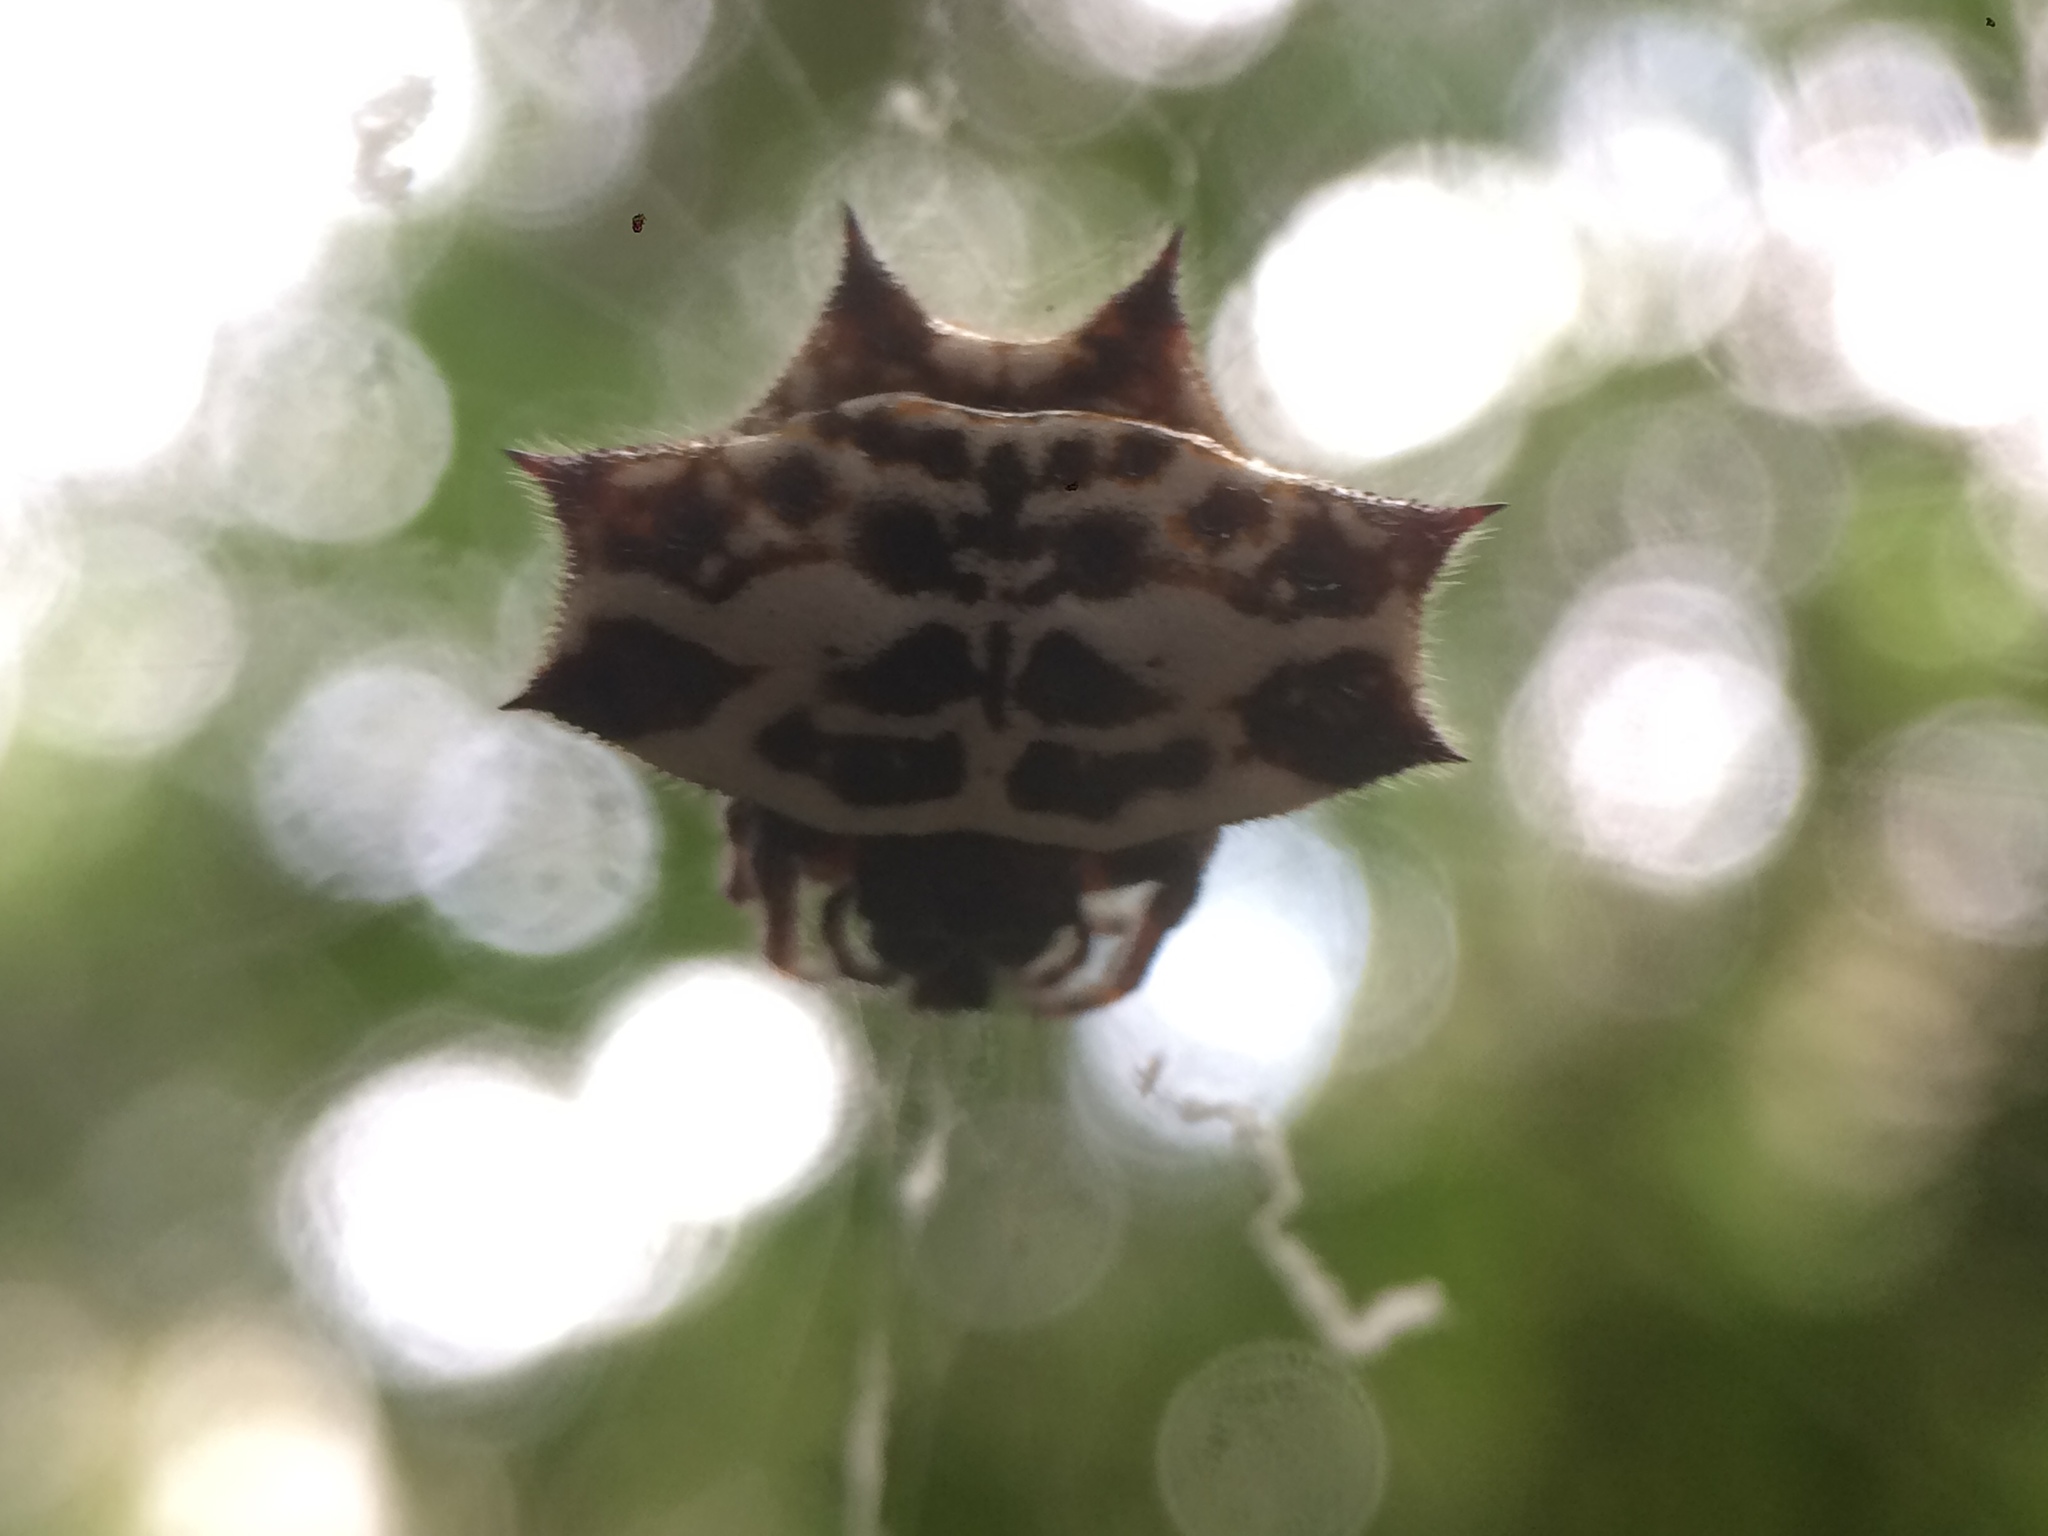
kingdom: Animalia
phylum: Arthropoda
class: Arachnida
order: Araneae
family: Araneidae
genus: Gasteracantha
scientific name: Gasteracantha cancriformis
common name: Orb weavers
